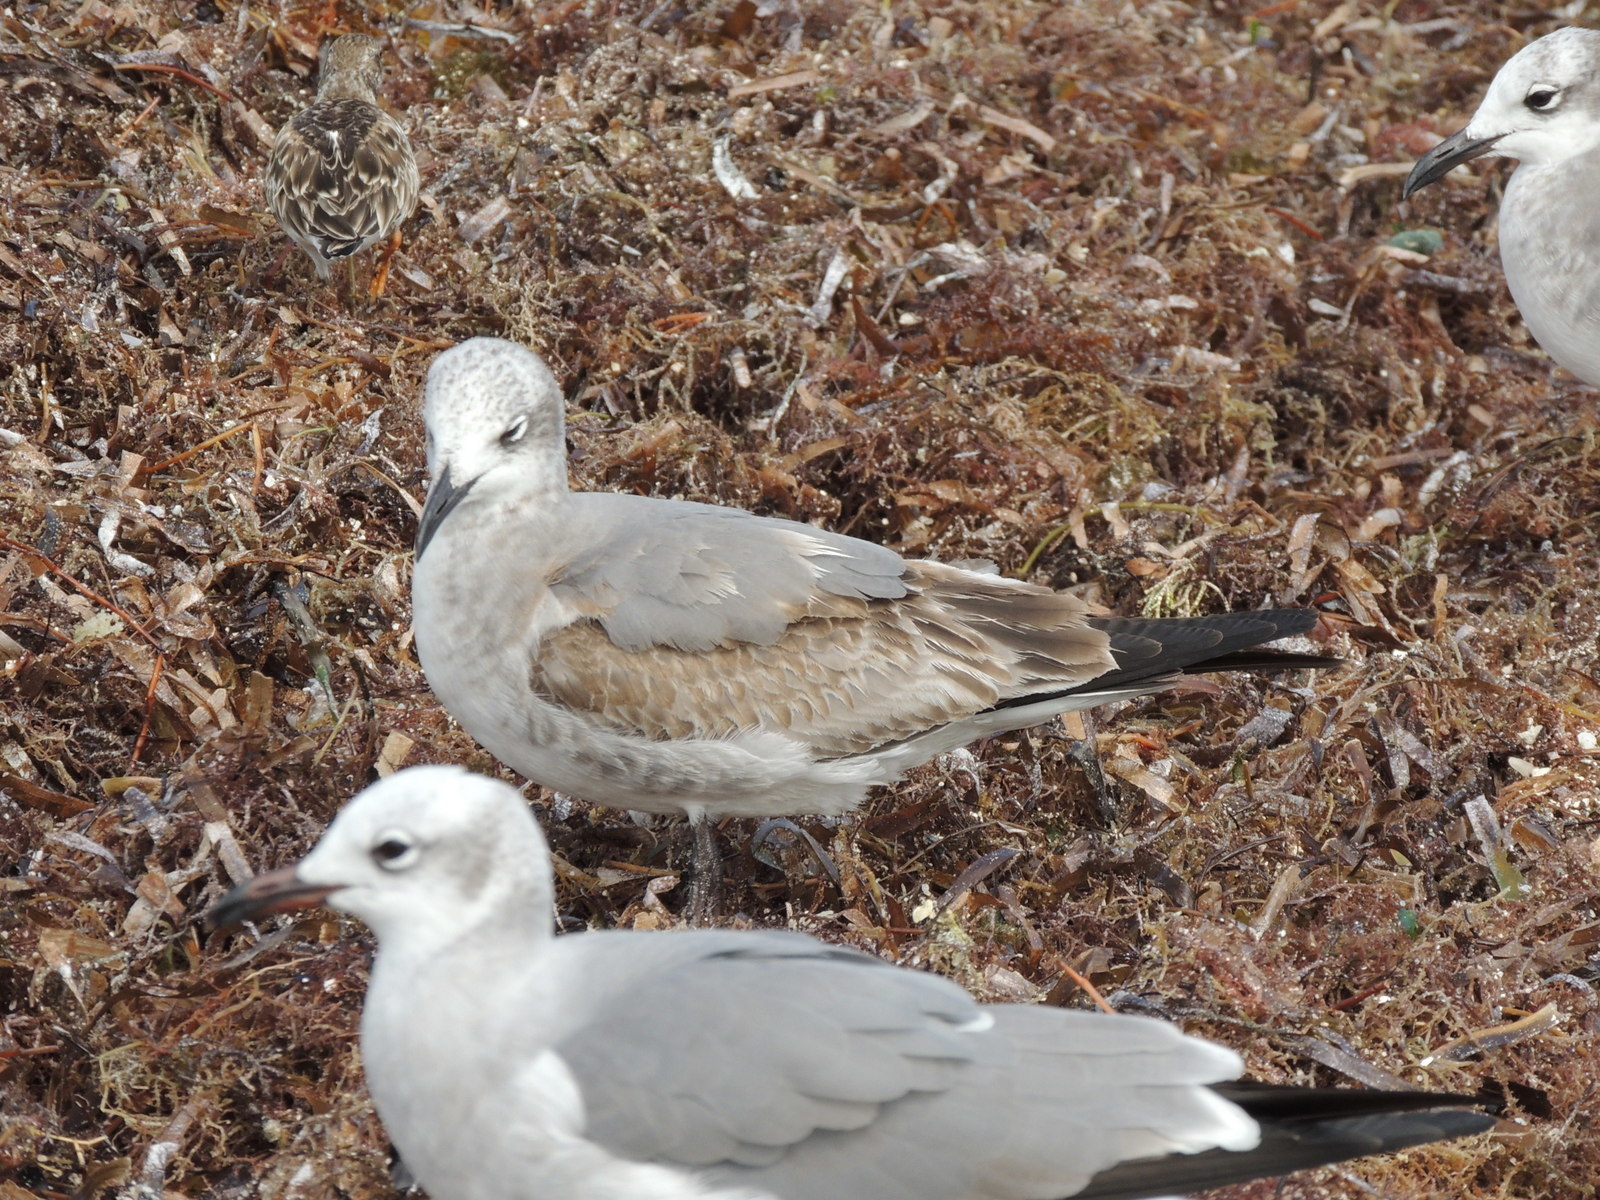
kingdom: Animalia
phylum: Chordata
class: Aves
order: Charadriiformes
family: Laridae
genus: Leucophaeus
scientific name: Leucophaeus atricilla
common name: Laughing gull
